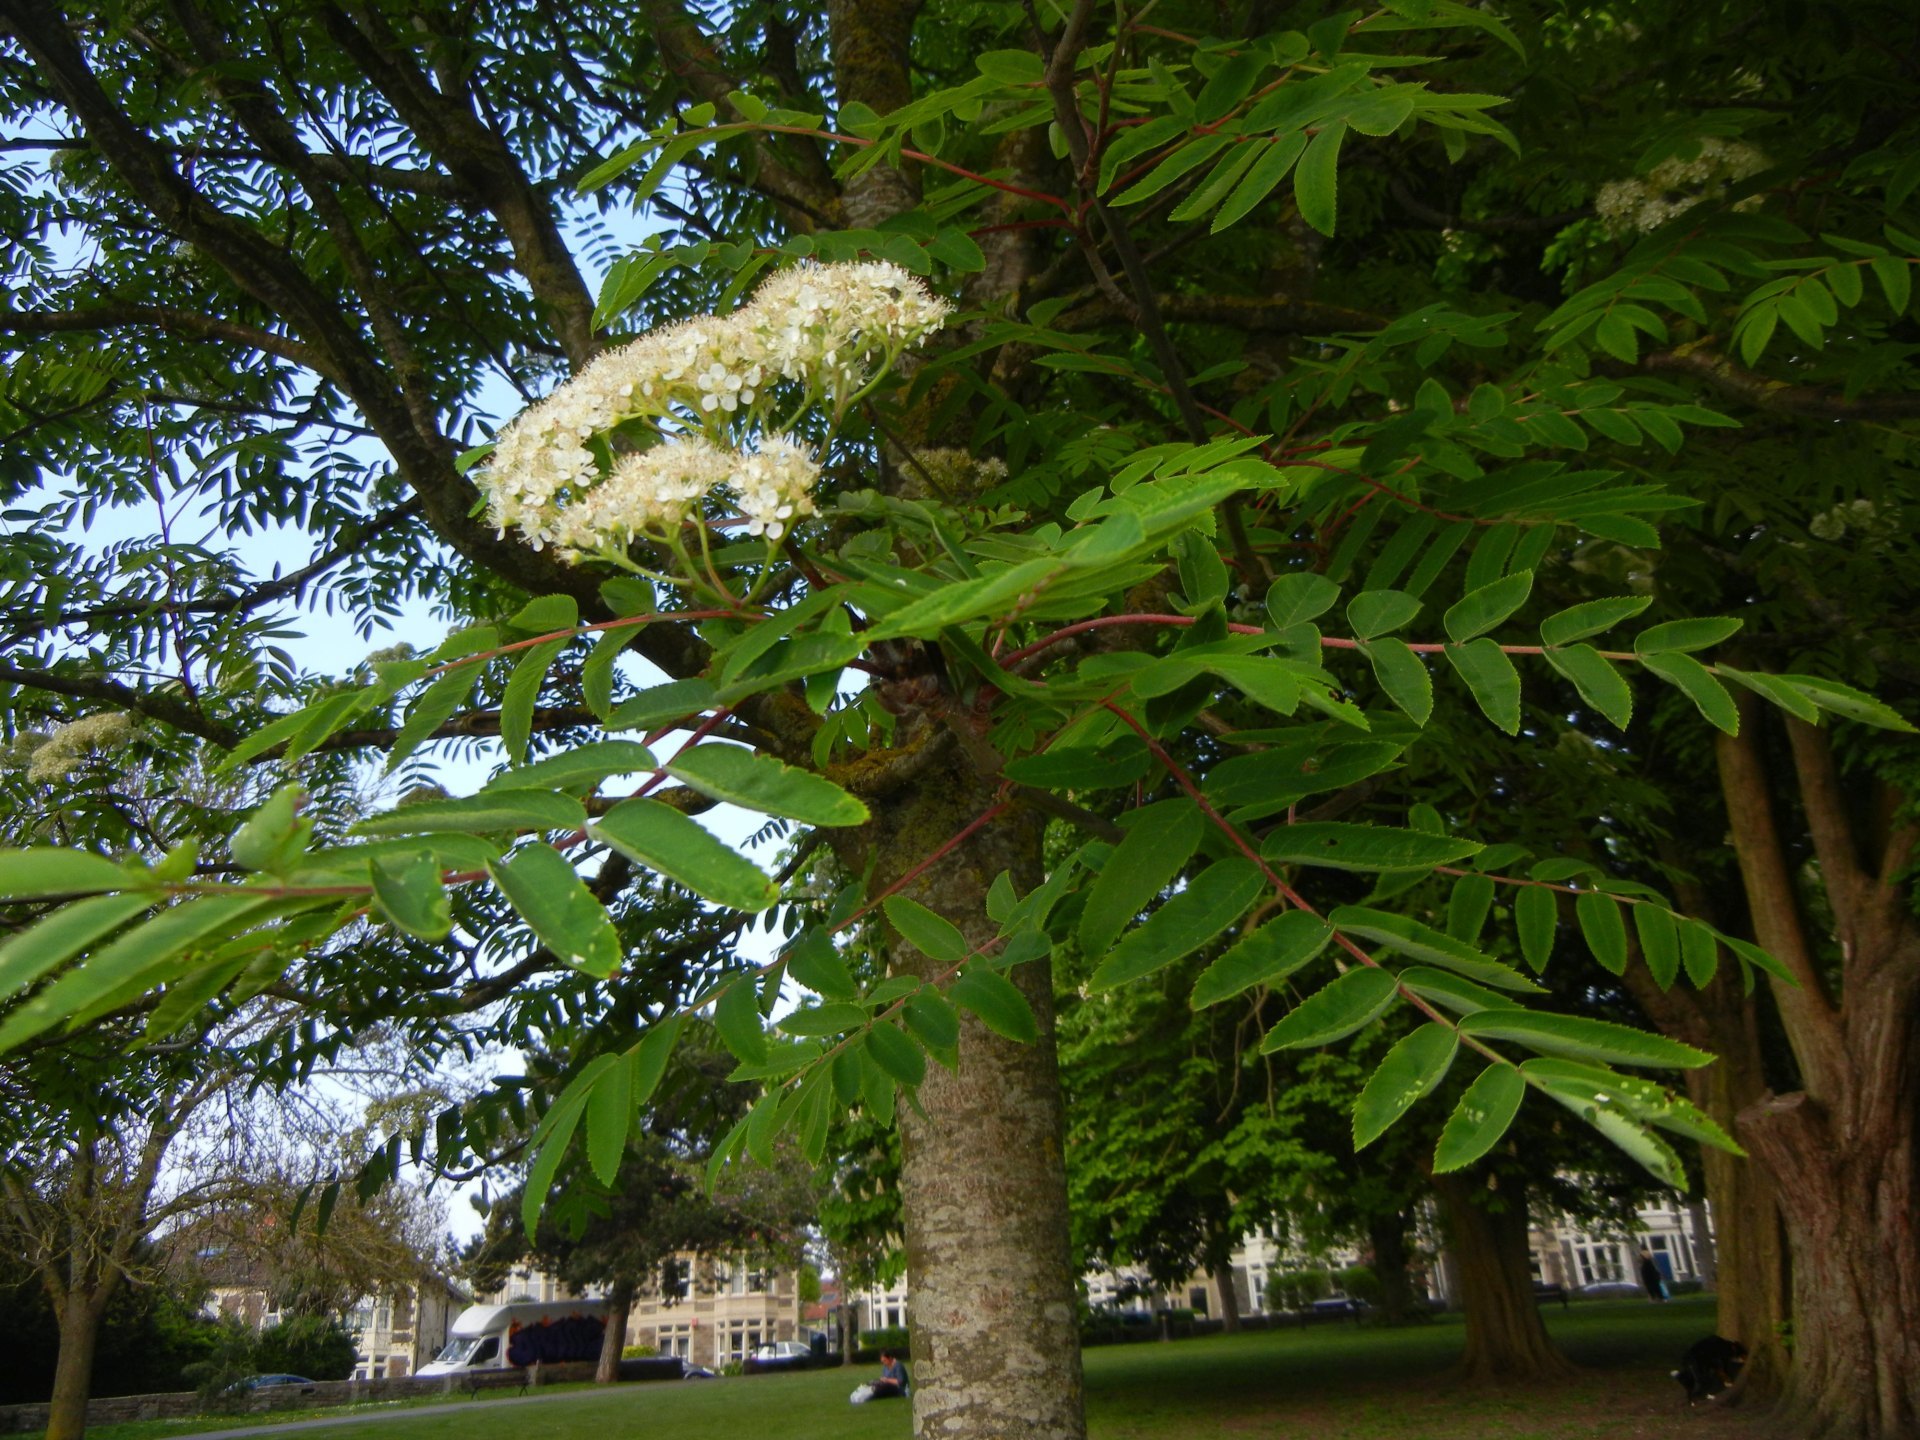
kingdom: Plantae
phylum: Tracheophyta
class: Magnoliopsida
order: Rosales
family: Rosaceae
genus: Sorbus
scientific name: Sorbus aucuparia
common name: Rowan
